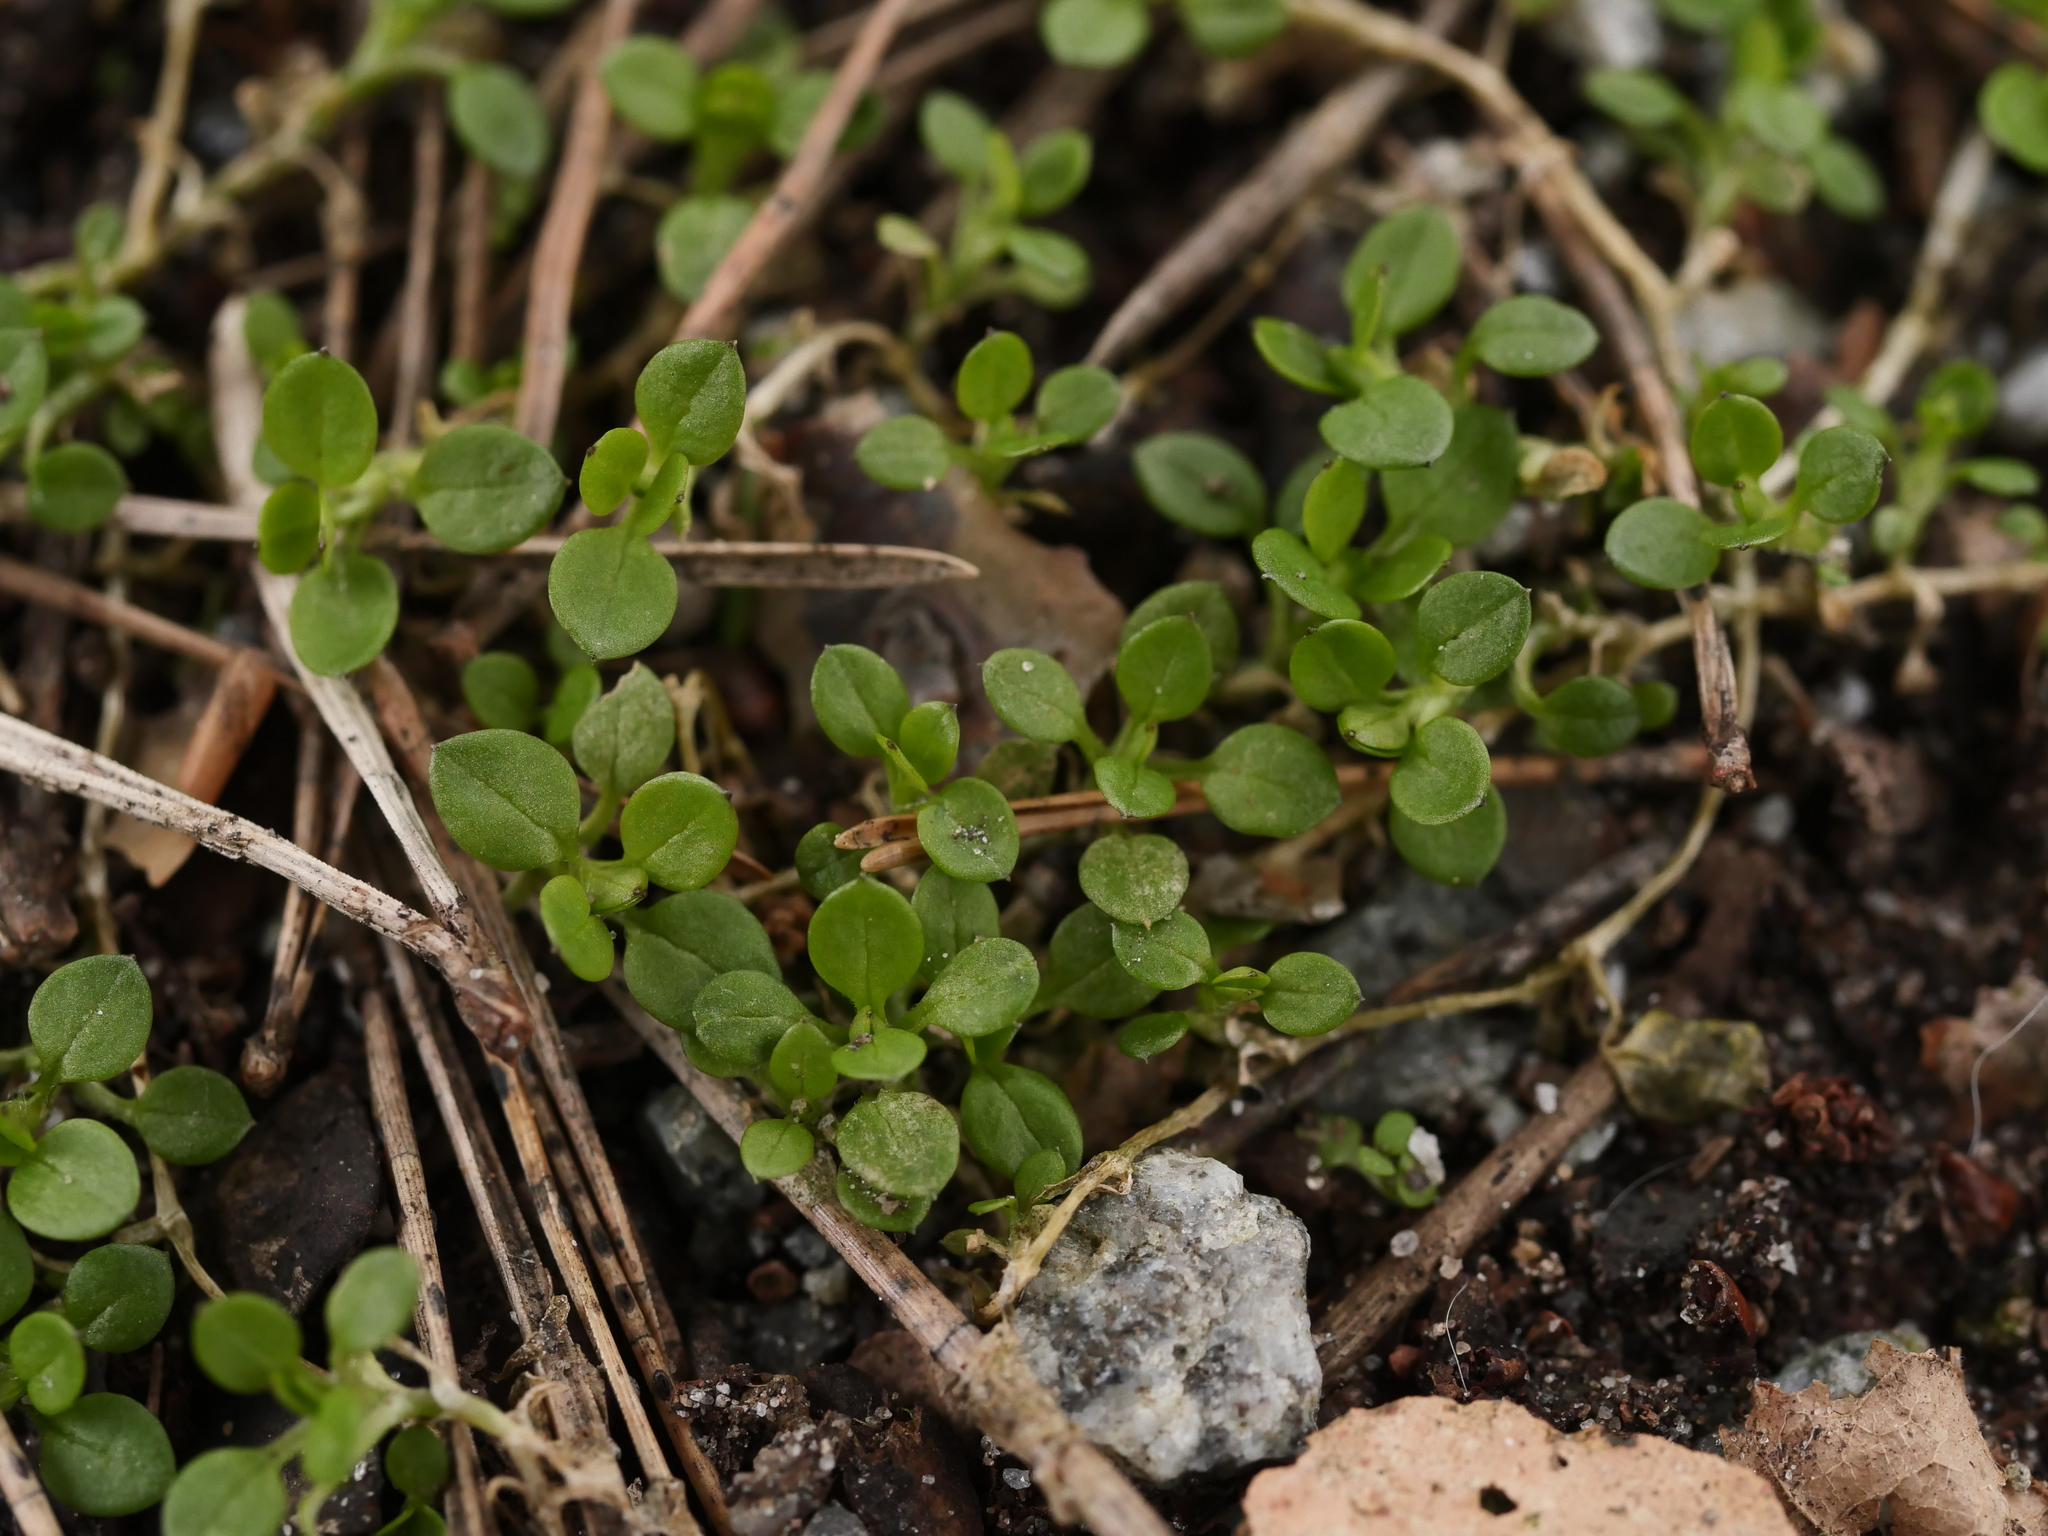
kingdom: Plantae
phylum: Tracheophyta
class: Magnoliopsida
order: Caryophyllales
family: Caryophyllaceae
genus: Stellaria
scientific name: Stellaria media
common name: Common chickweed
